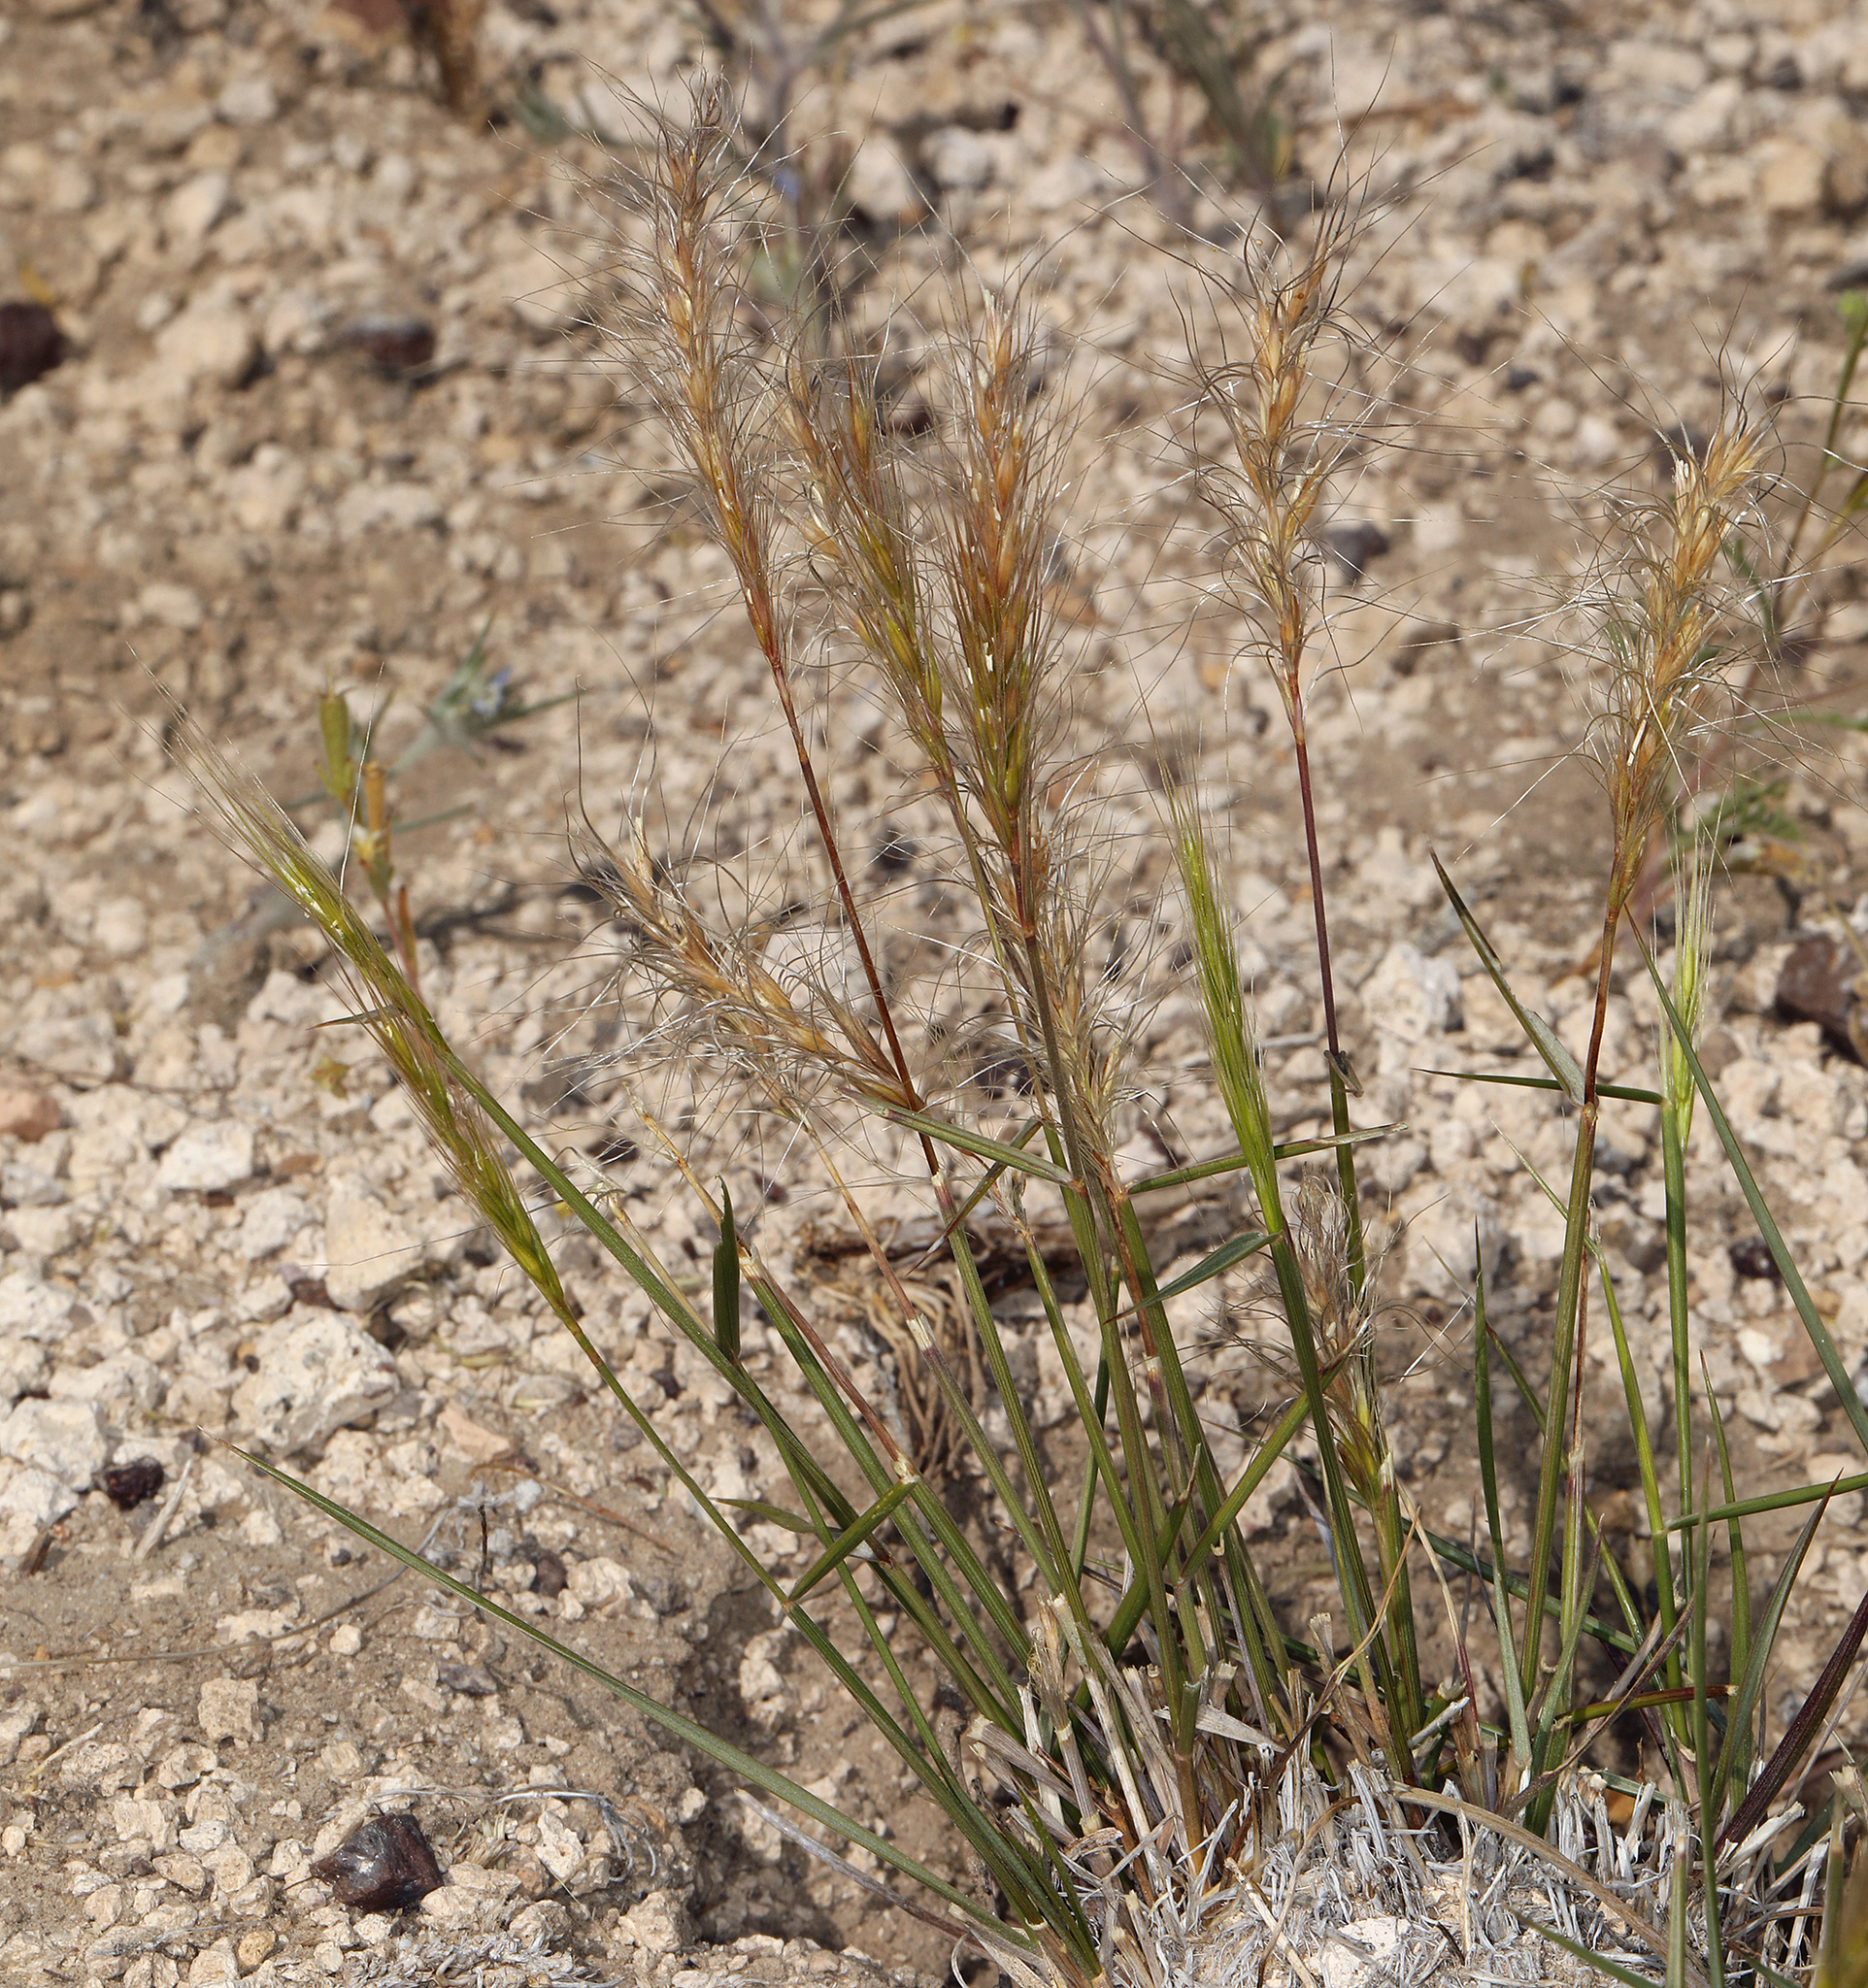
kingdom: Plantae
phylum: Tracheophyta
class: Liliopsida
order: Poales
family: Poaceae
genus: Elymus
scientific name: Elymus elymoides
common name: Bottlebrush squirreltail
